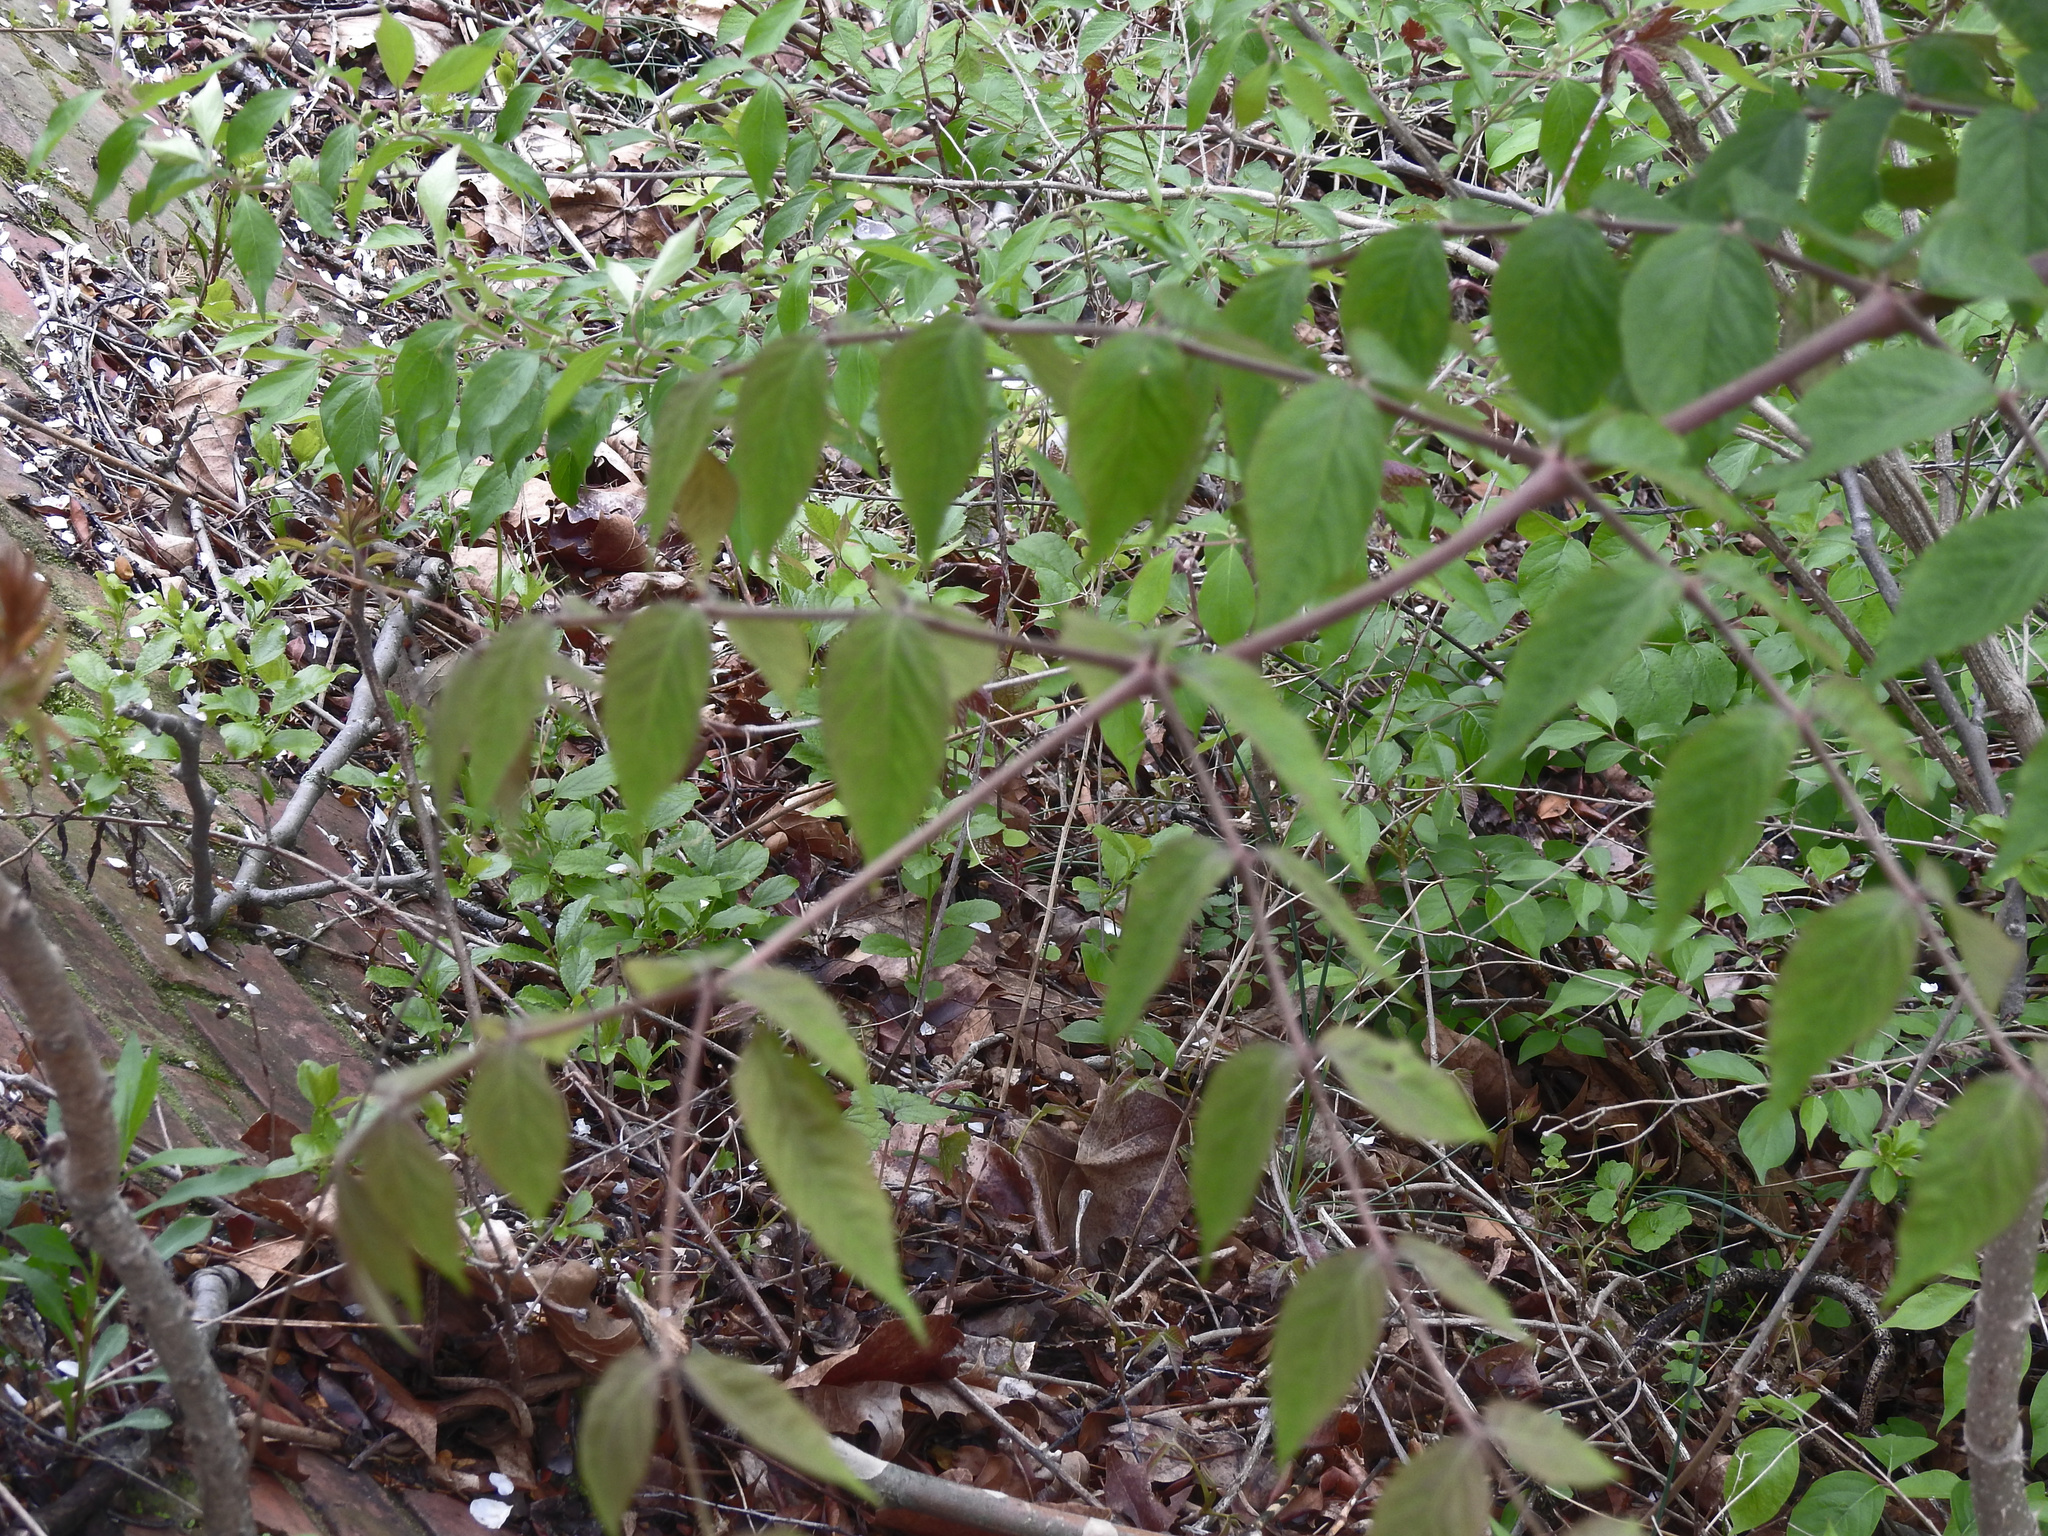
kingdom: Plantae
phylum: Tracheophyta
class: Magnoliopsida
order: Apiales
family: Araliaceae
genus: Aralia
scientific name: Aralia elata
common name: Japanese angelica-tree
